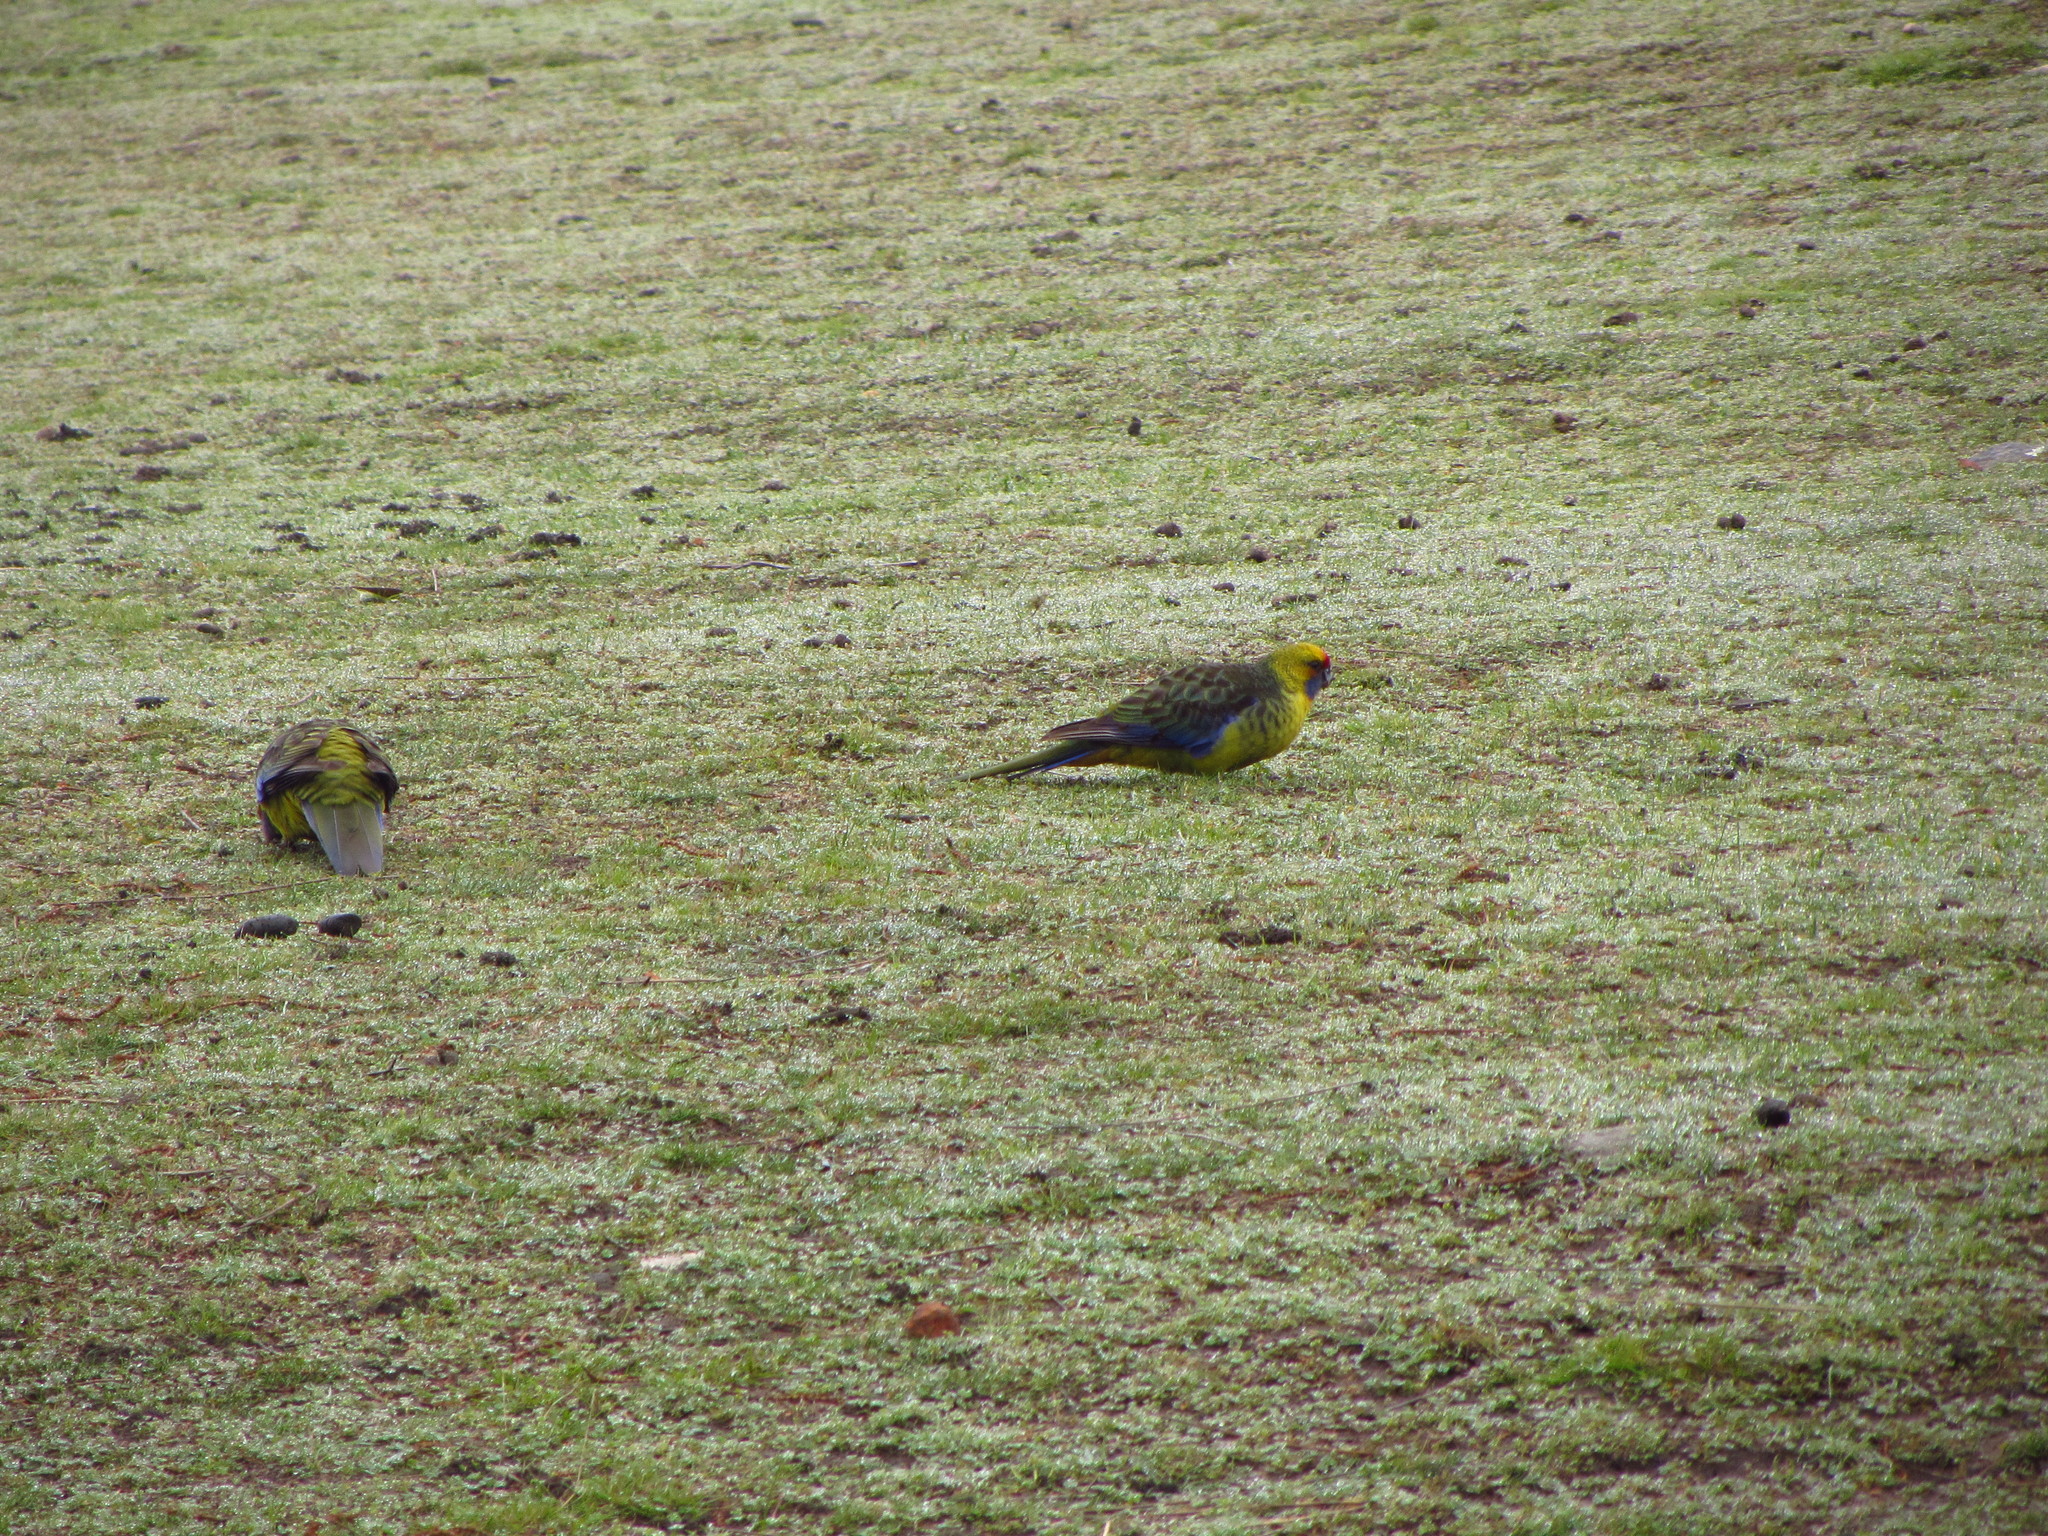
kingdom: Animalia
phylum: Chordata
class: Aves
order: Psittaciformes
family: Psittacidae
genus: Platycercus
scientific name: Platycercus caledonicus
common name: Green rosella
